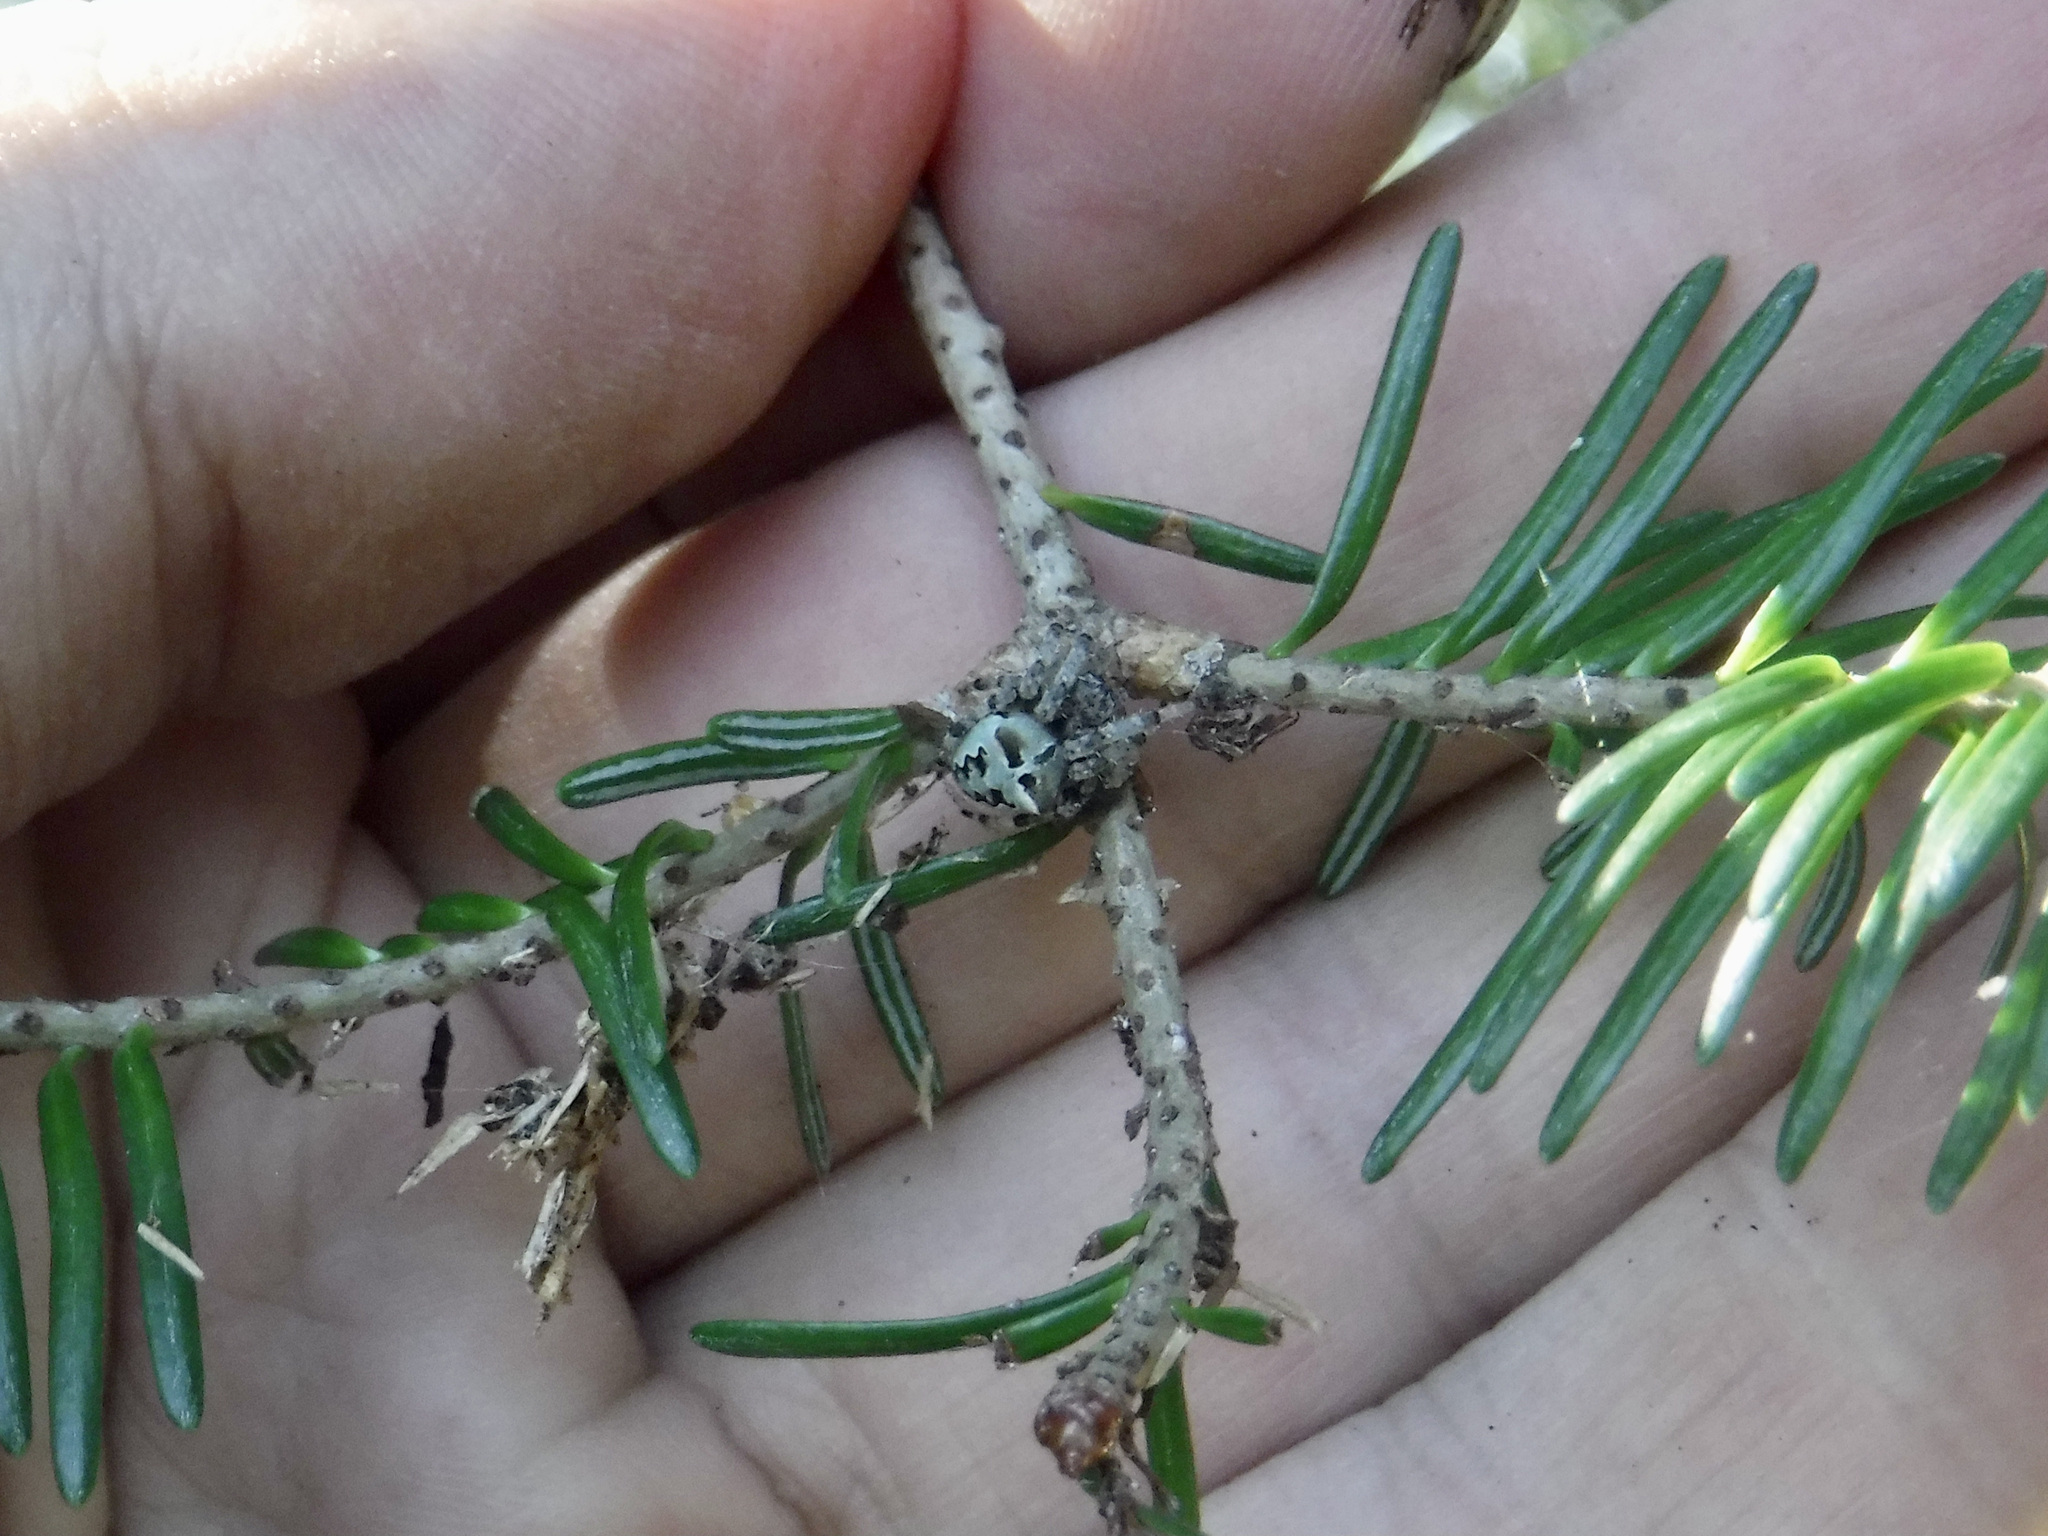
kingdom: Animalia
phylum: Arthropoda
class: Arachnida
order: Araneae
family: Araneidae
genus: Araneus
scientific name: Araneus bicentenarius
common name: Giant lichen orbweaver
